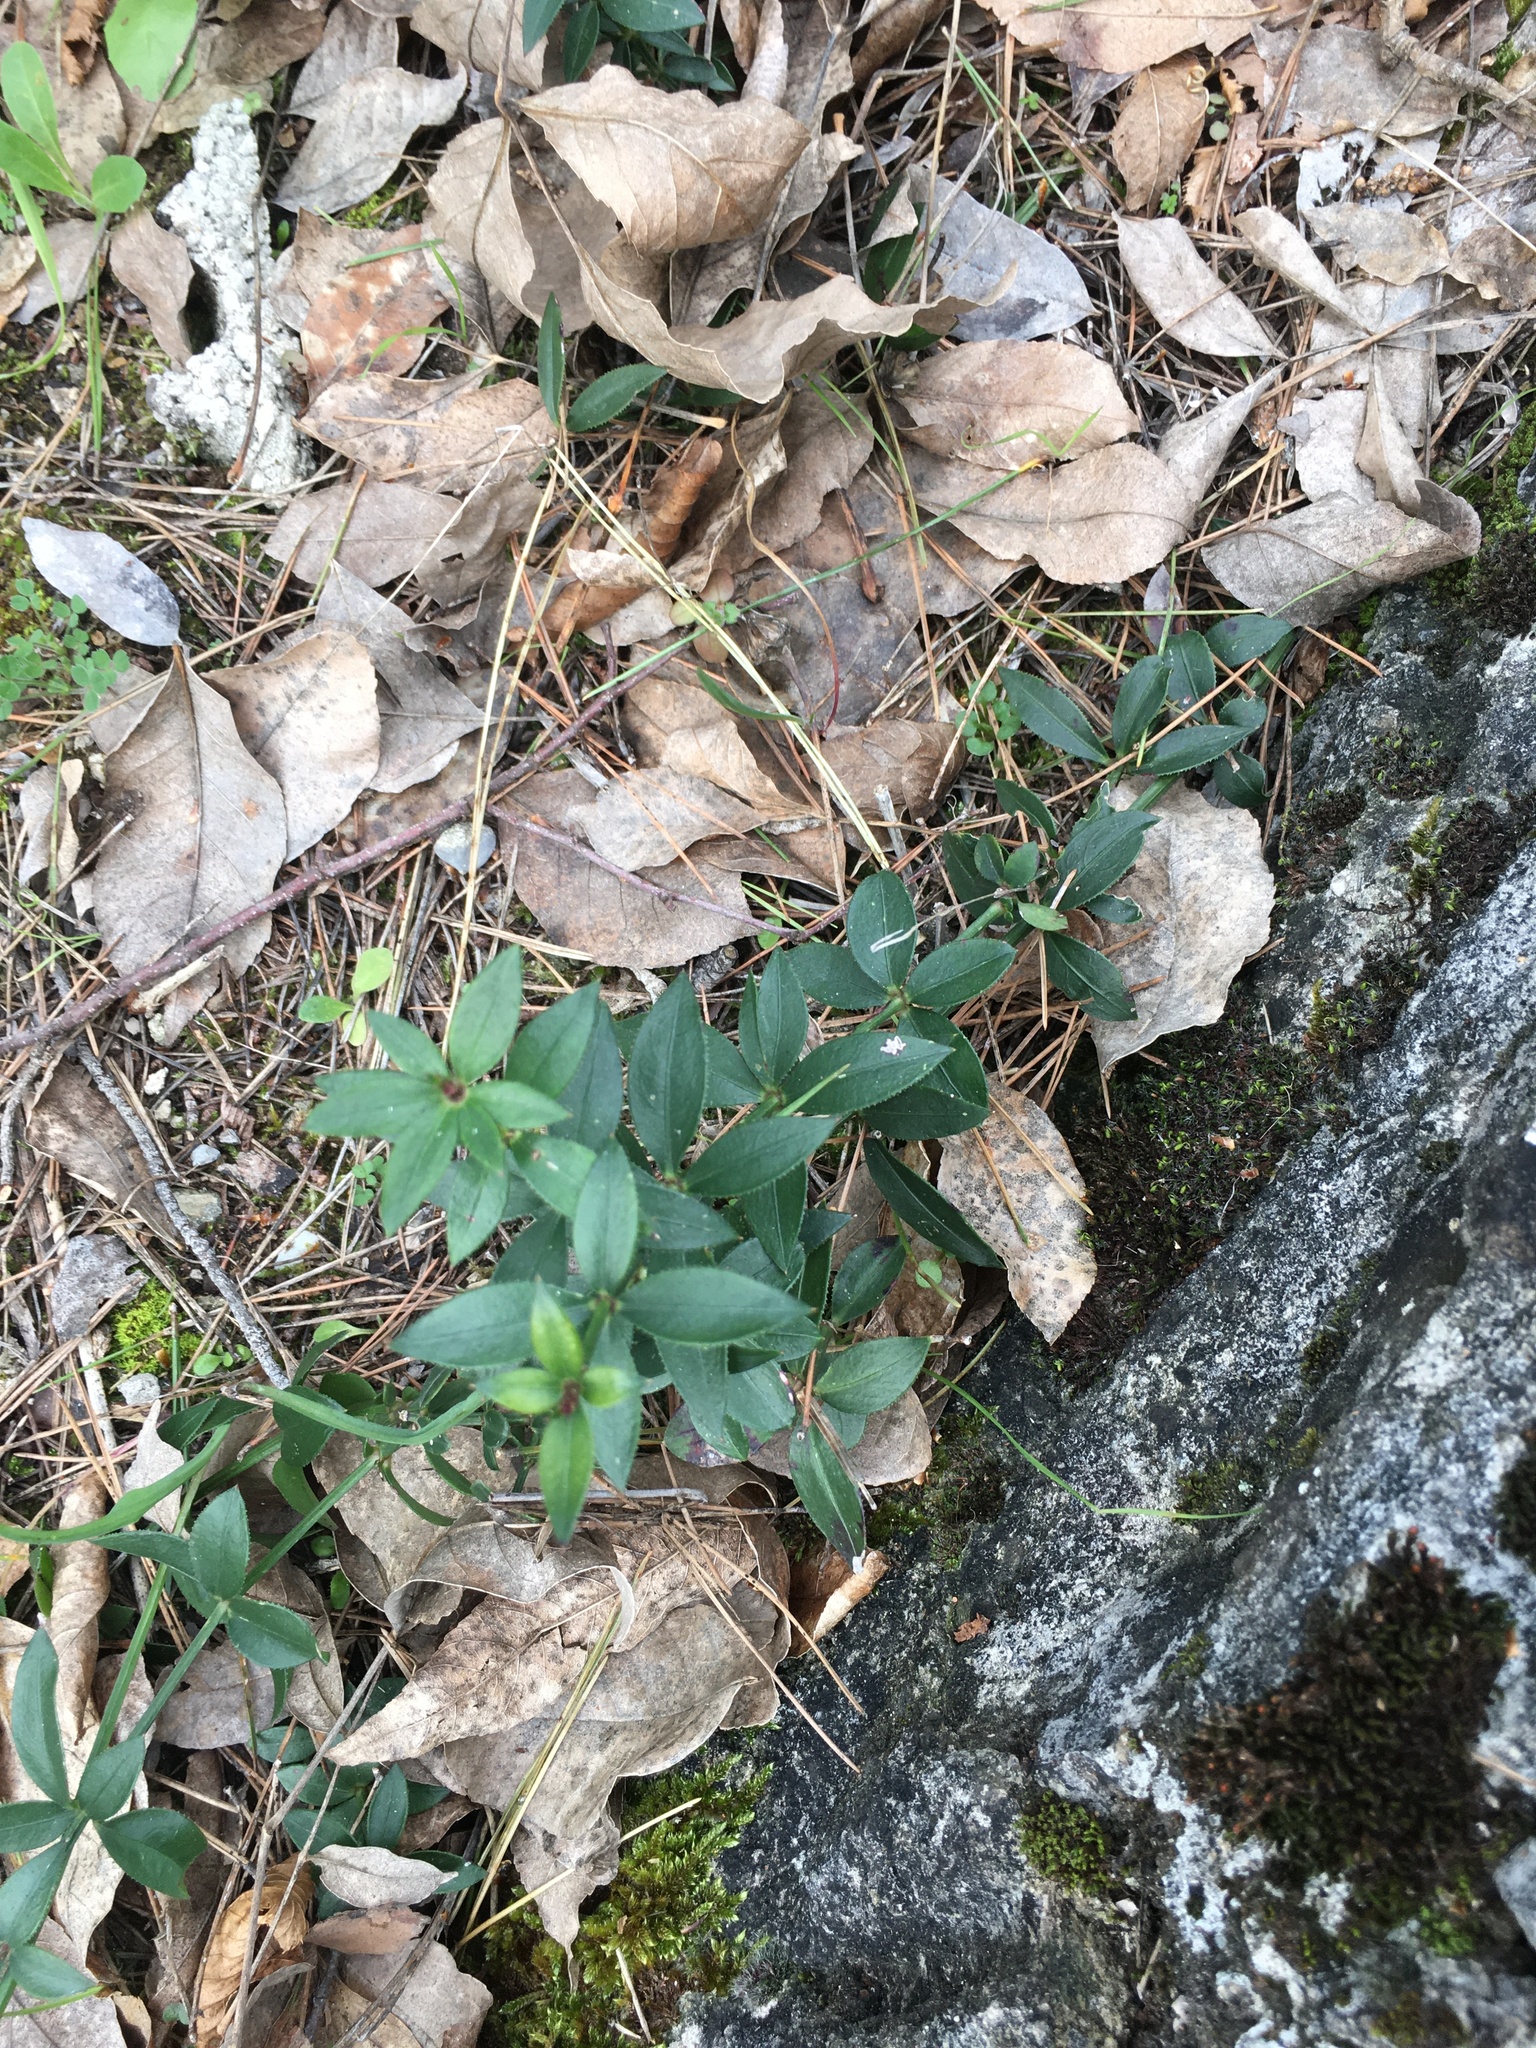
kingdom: Plantae
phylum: Tracheophyta
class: Magnoliopsida
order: Gentianales
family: Rubiaceae
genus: Rubia
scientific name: Rubia peregrina
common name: Wild madder
